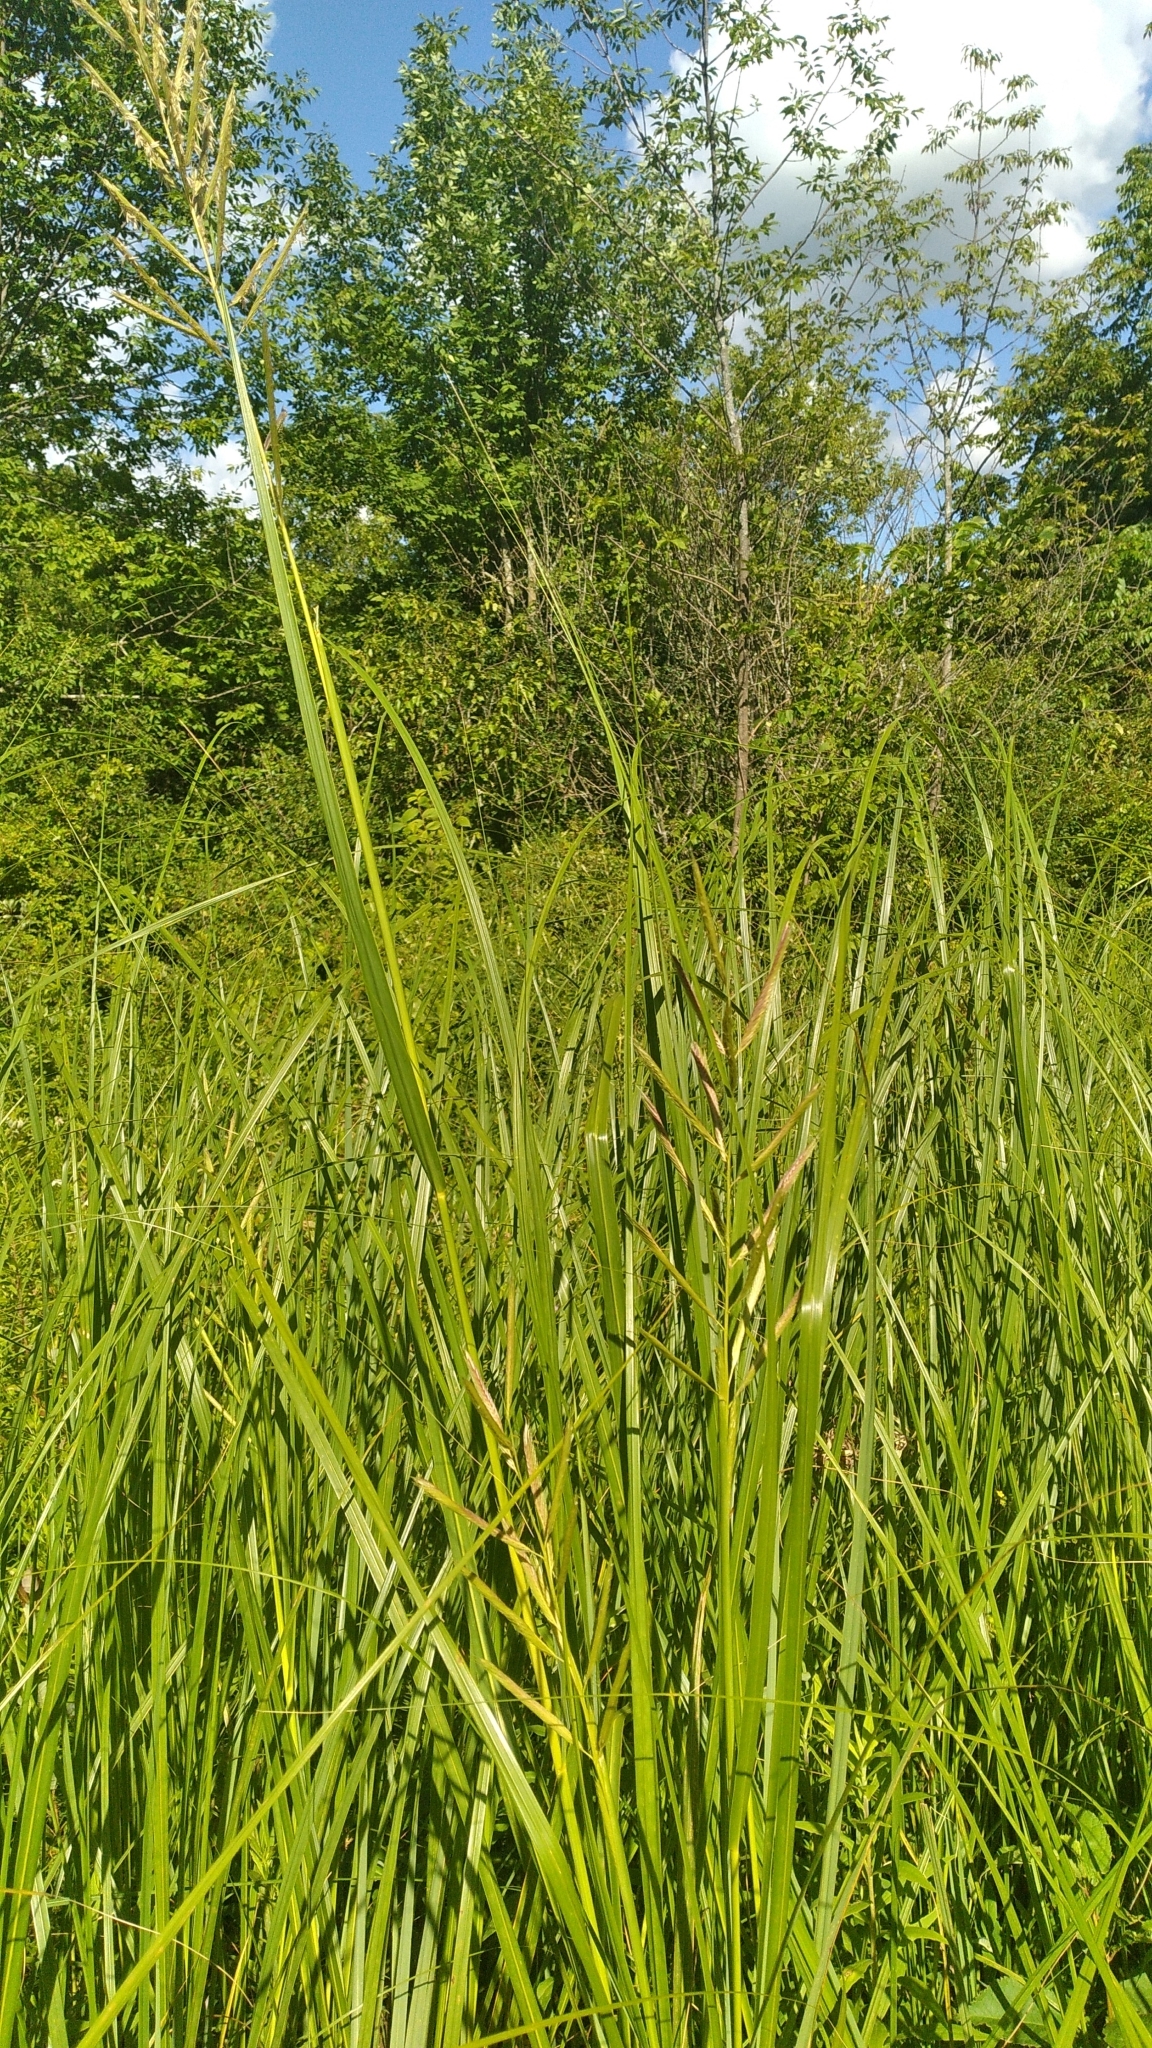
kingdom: Plantae
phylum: Tracheophyta
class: Liliopsida
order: Poales
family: Poaceae
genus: Sporobolus
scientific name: Sporobolus michauxianus
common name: Freshwater cordgrass
